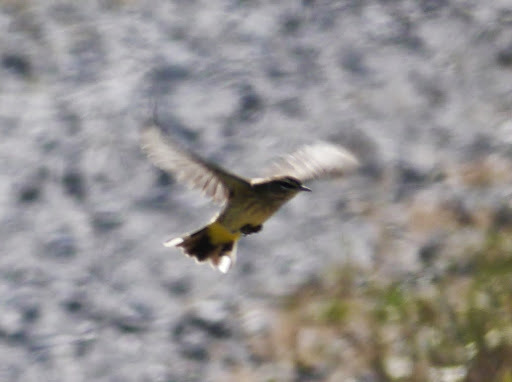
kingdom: Animalia
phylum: Chordata
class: Aves
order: Passeriformes
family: Parulidae
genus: Setophaga
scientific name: Setophaga palmarum
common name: Palm warbler
